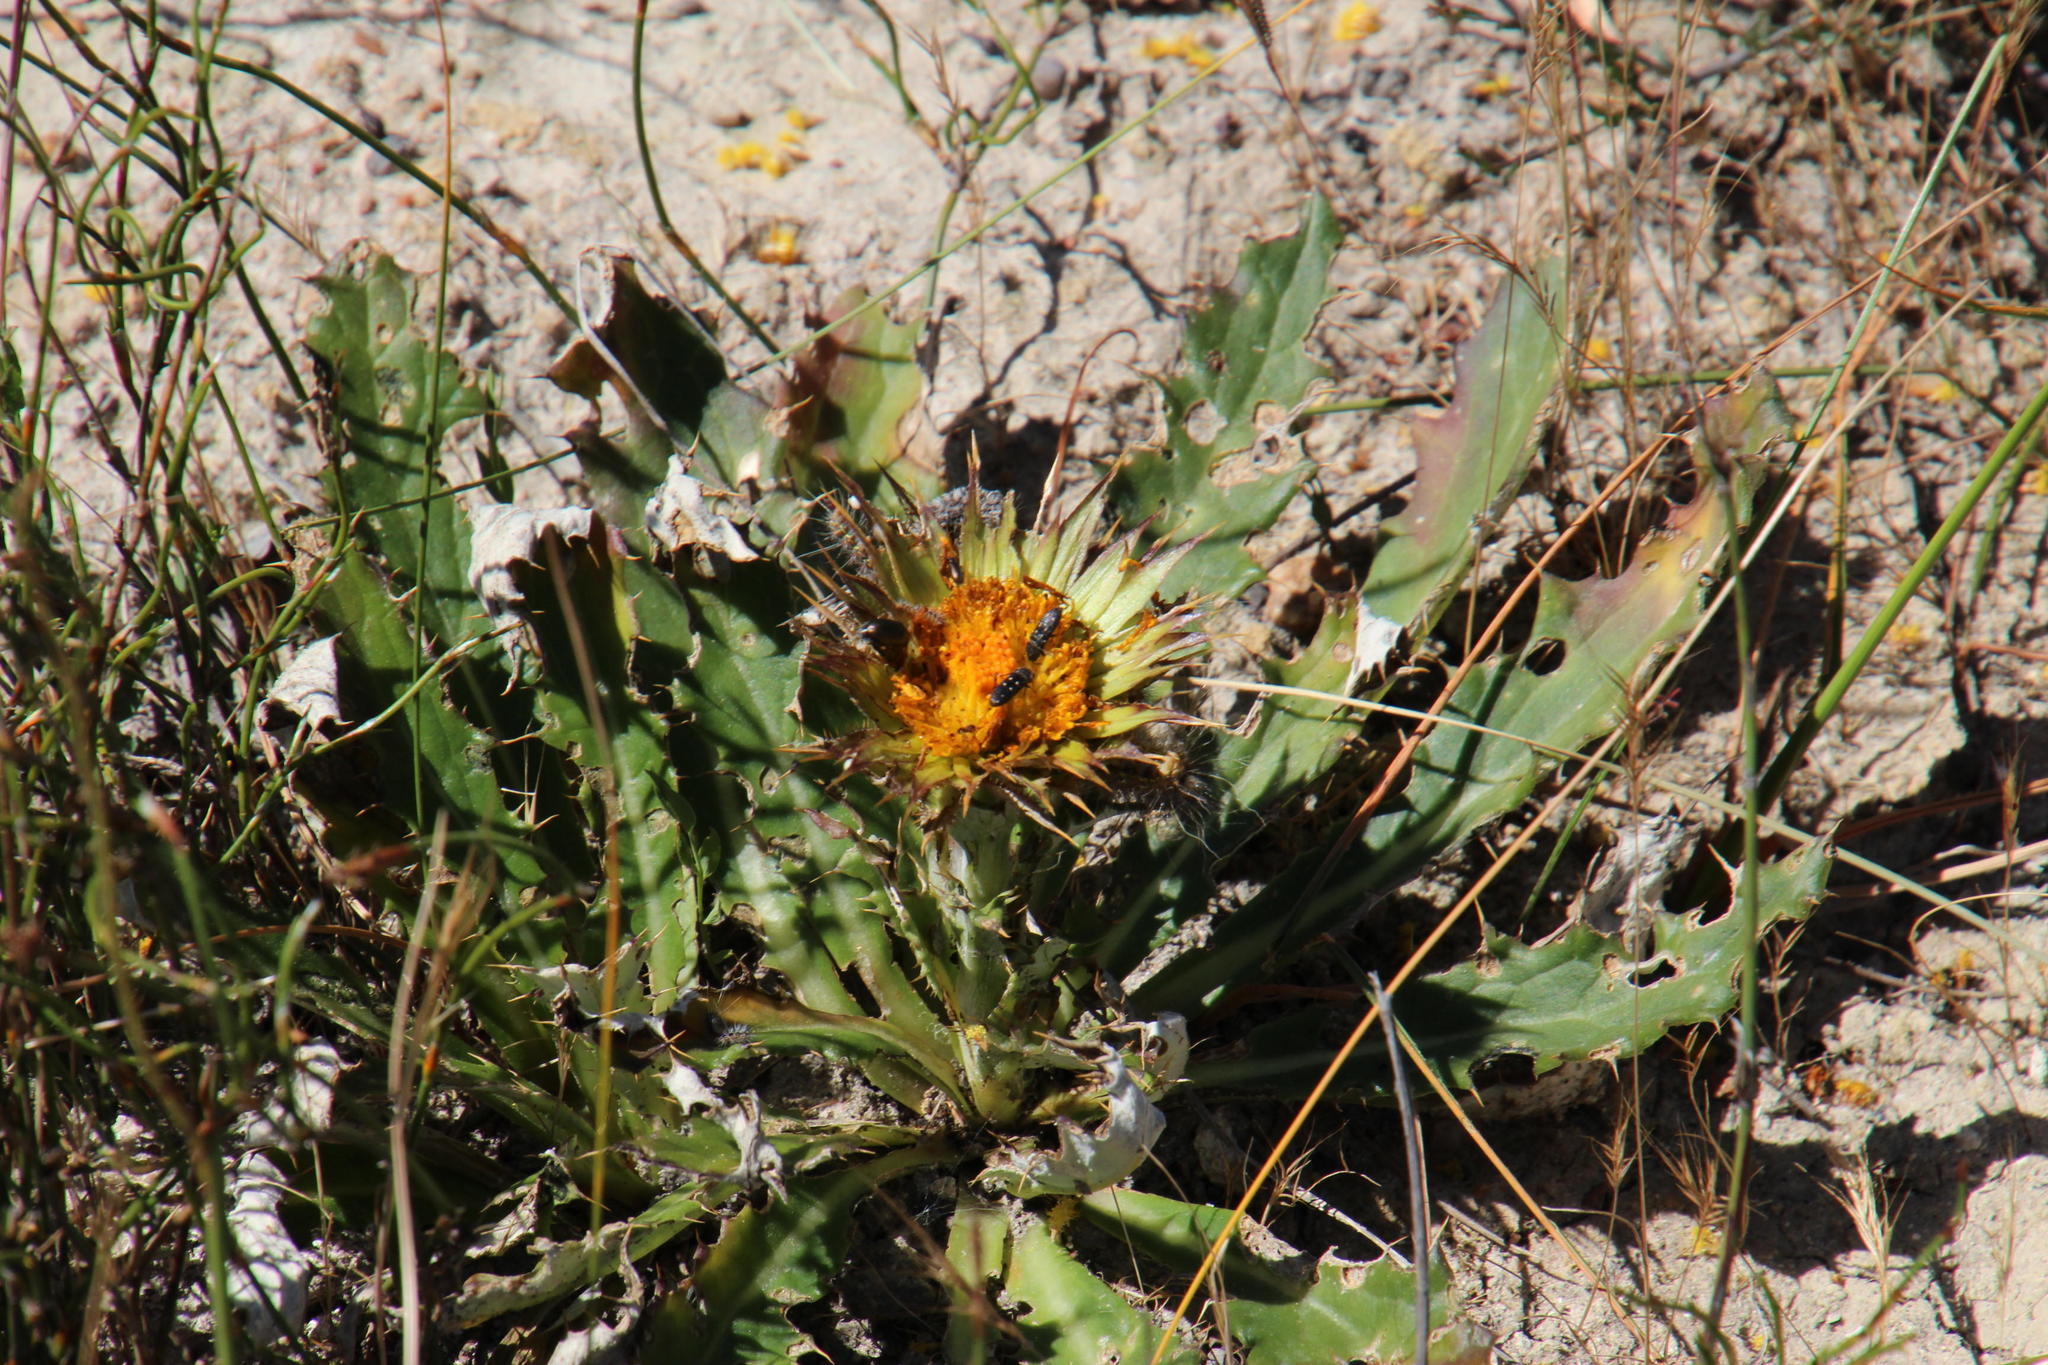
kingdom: Plantae
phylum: Tracheophyta
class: Magnoliopsida
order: Asterales
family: Asteraceae
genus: Berkheya
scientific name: Berkheya armata
